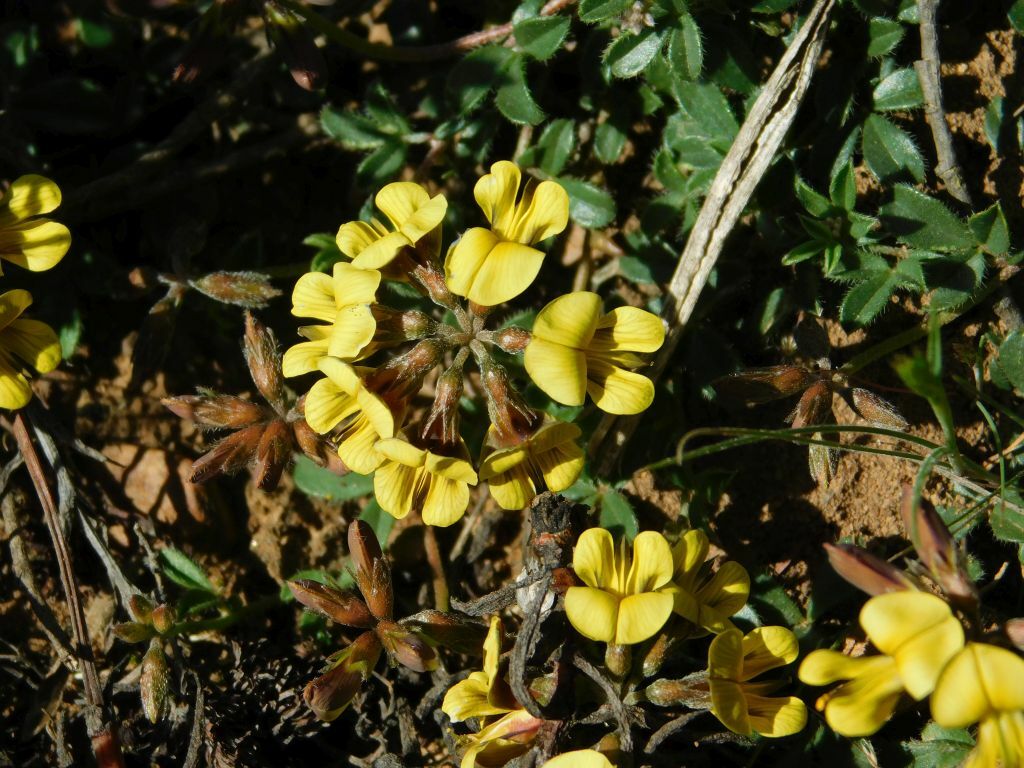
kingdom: Plantae
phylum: Tracheophyta
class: Magnoliopsida
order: Fabales
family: Fabaceae
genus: Lotononis
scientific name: Lotononis umbellata
